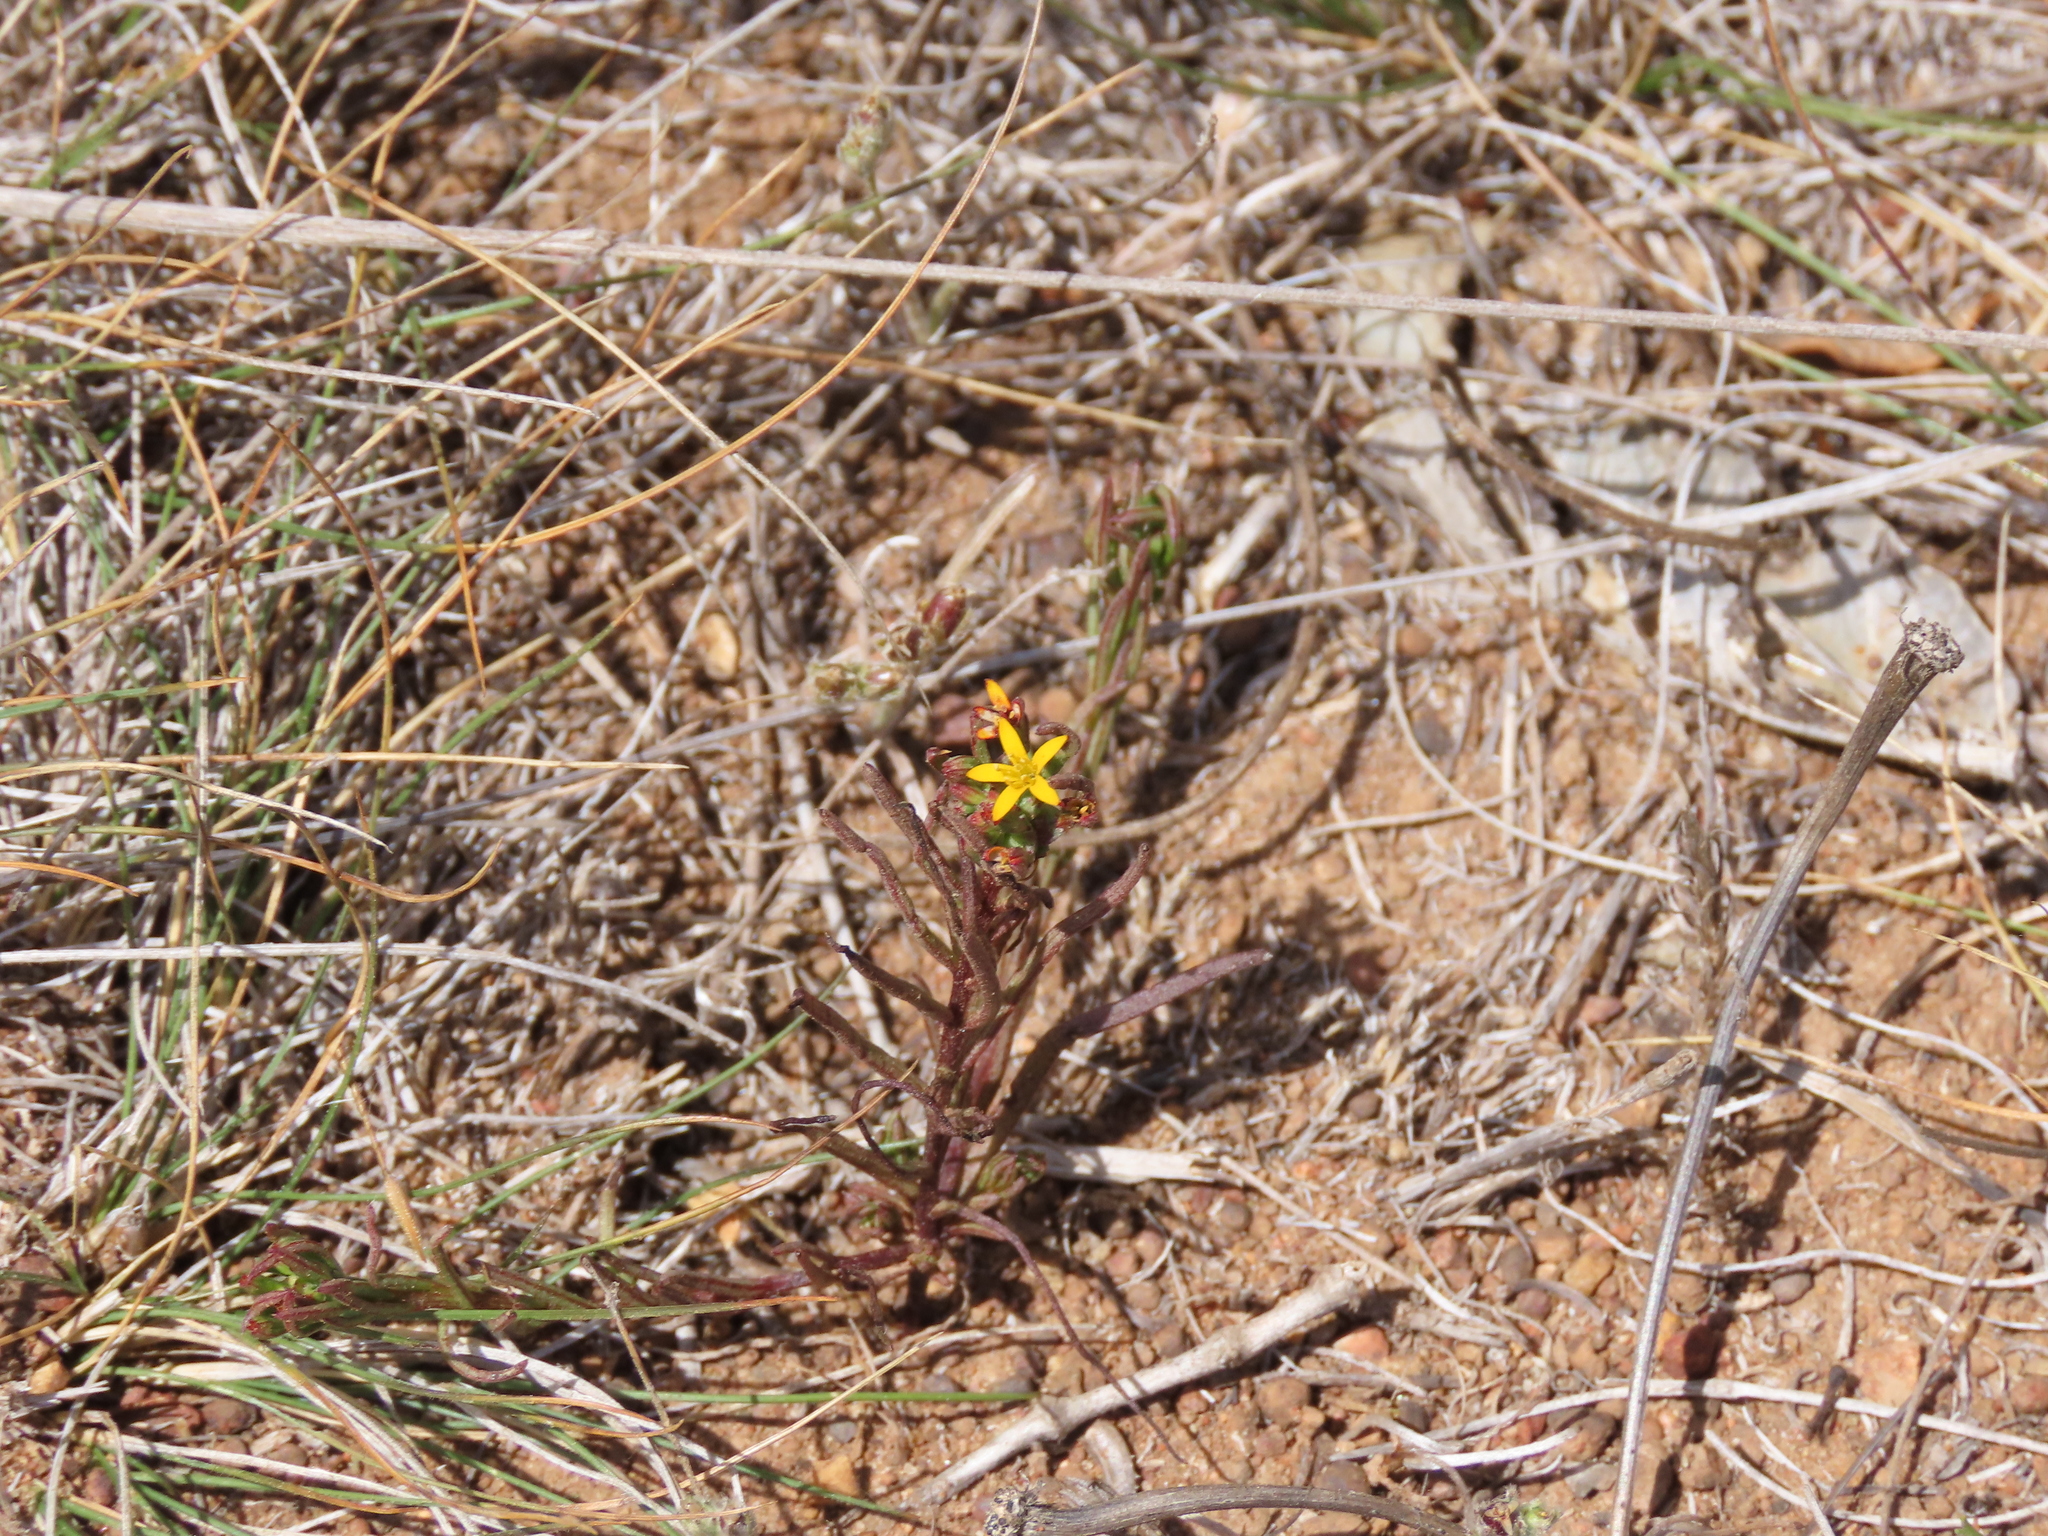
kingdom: Plantae
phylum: Tracheophyta
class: Magnoliopsida
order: Santalales
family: Schoepfiaceae
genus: Quinchamalium
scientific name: Quinchamalium chilense
